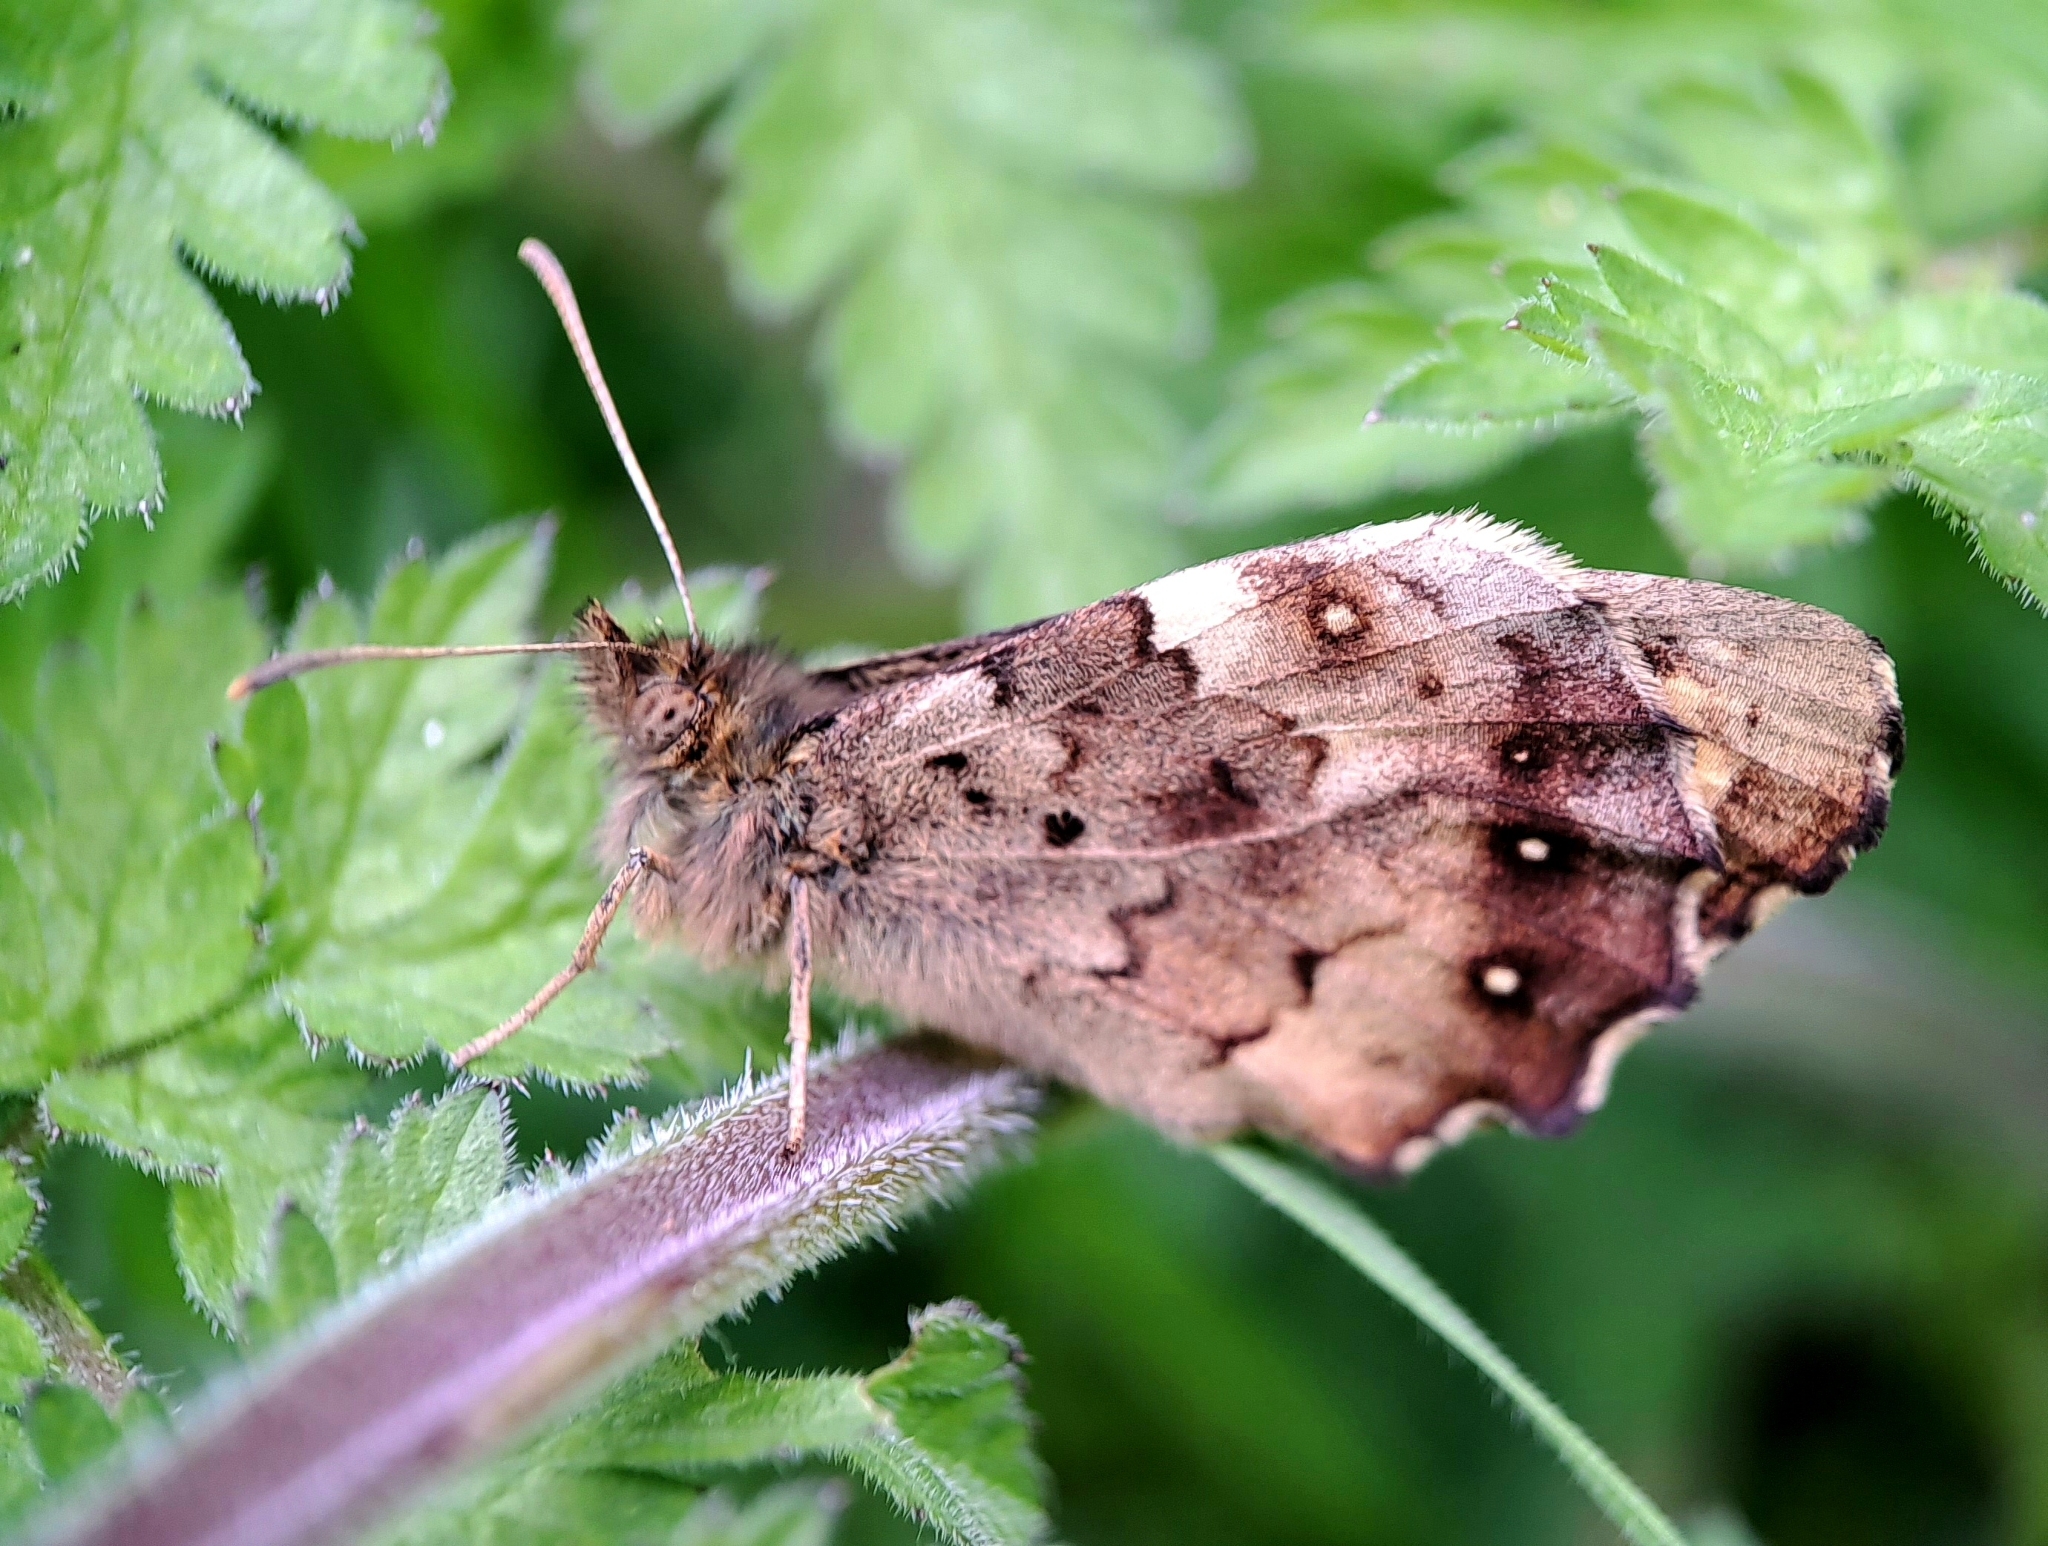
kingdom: Animalia
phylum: Arthropoda
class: Insecta
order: Lepidoptera
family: Nymphalidae
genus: Pararge
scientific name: Pararge aegeria
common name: Speckled wood
